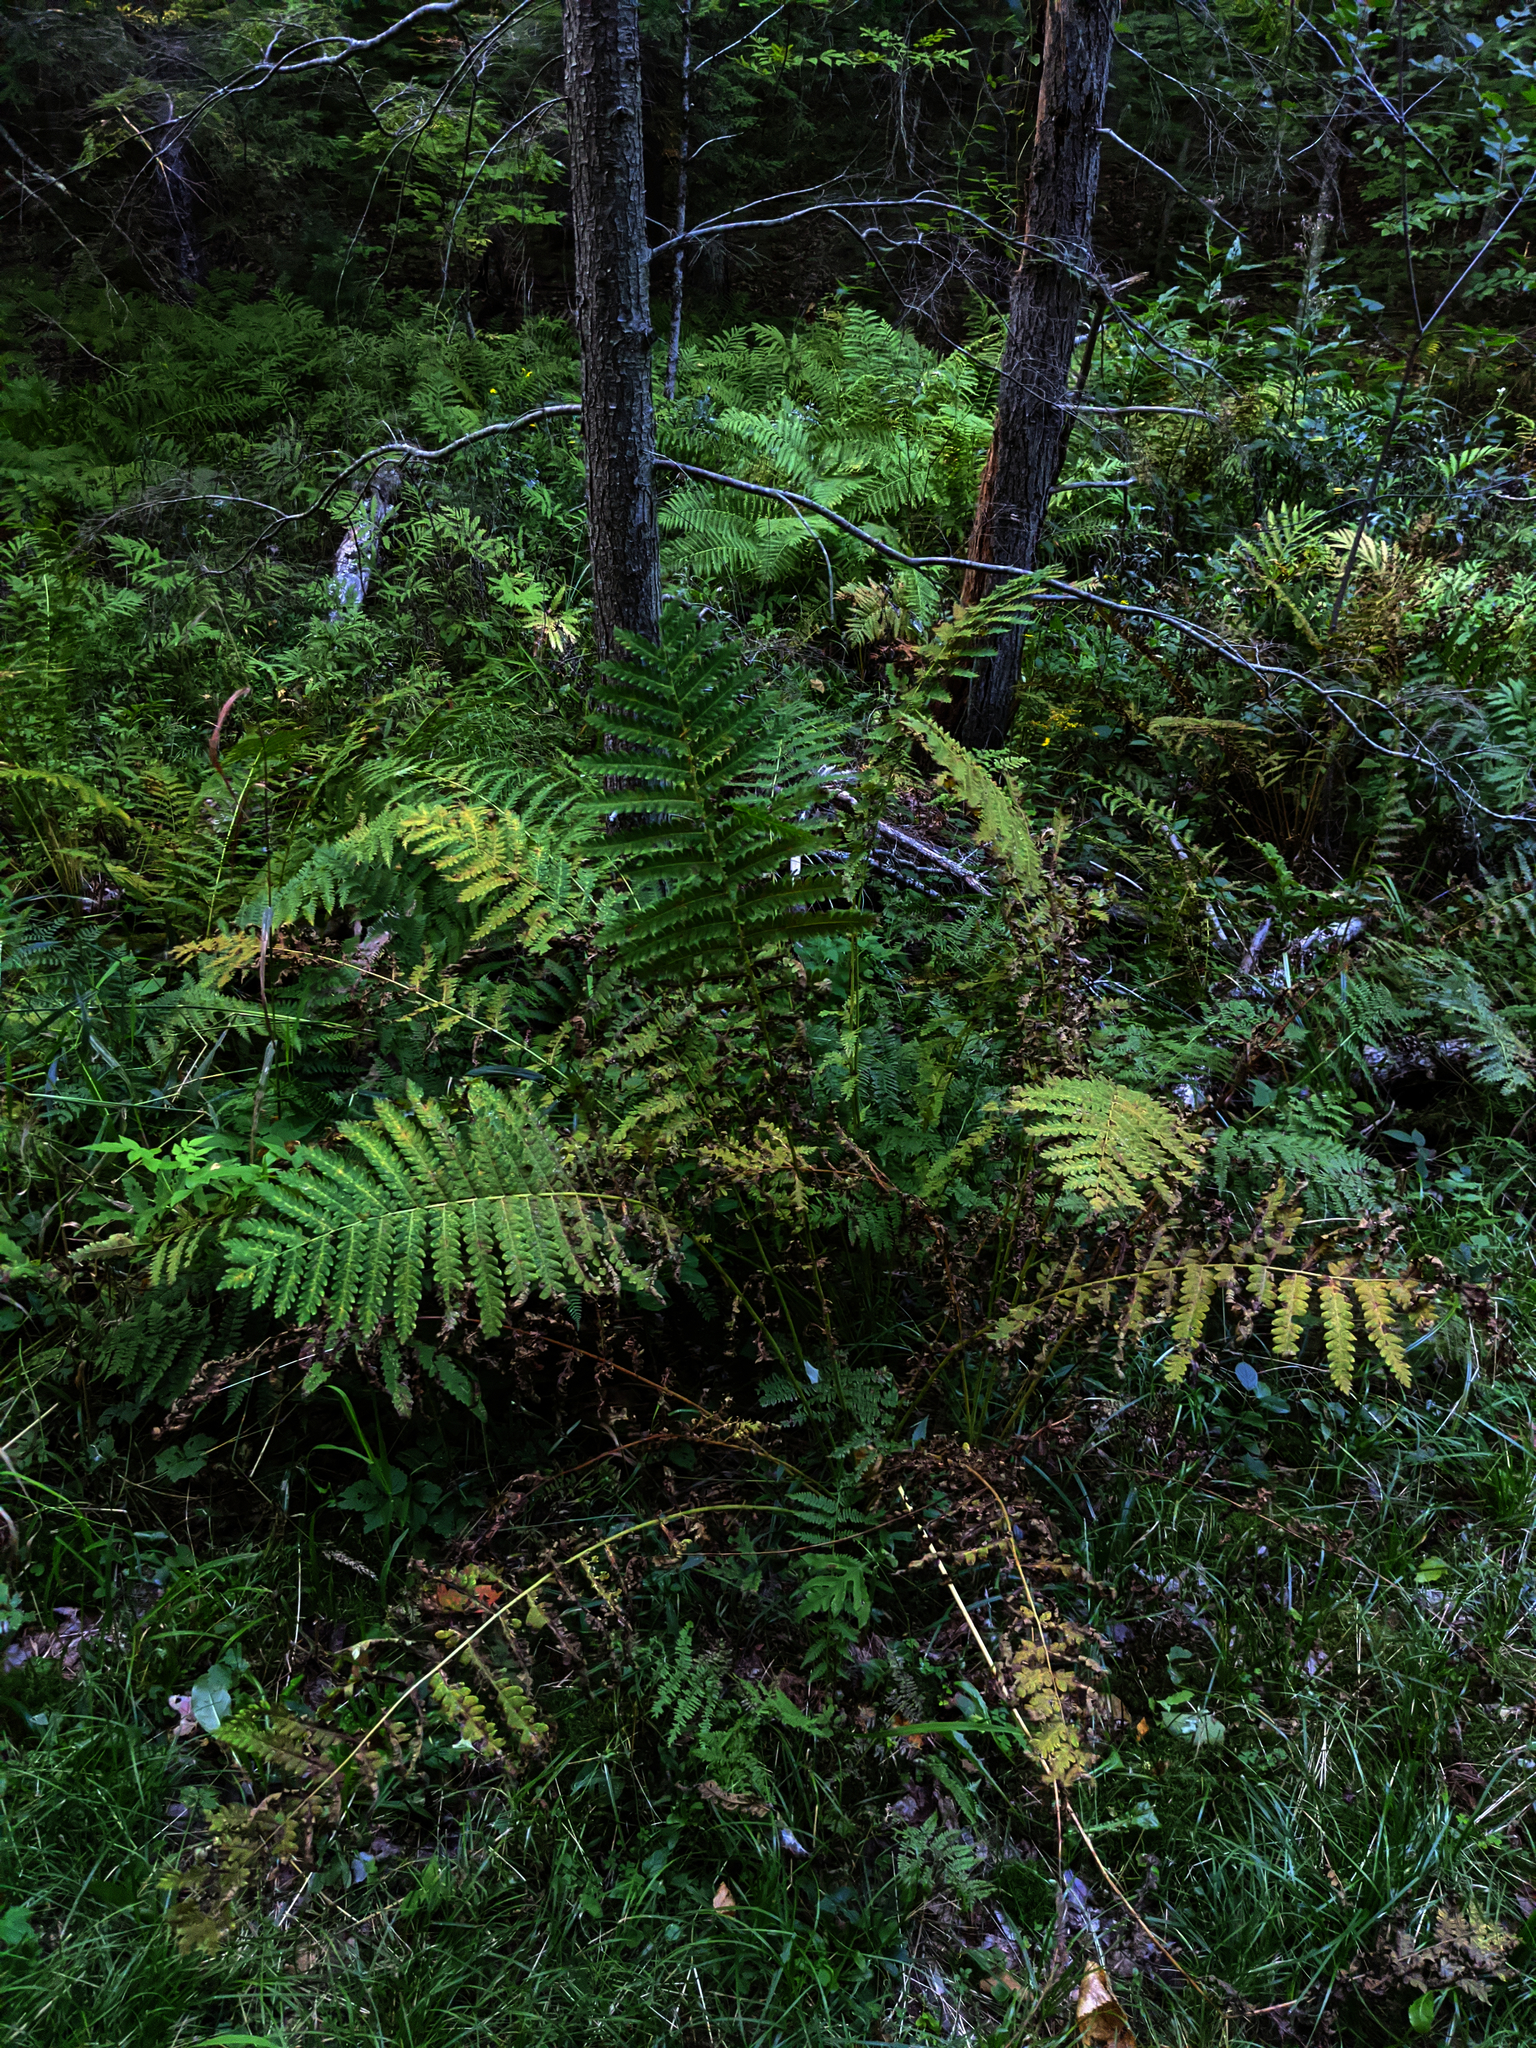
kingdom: Plantae
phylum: Tracheophyta
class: Polypodiopsida
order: Osmundales
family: Osmundaceae
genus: Claytosmunda
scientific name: Claytosmunda claytoniana
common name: Clayton's fern
